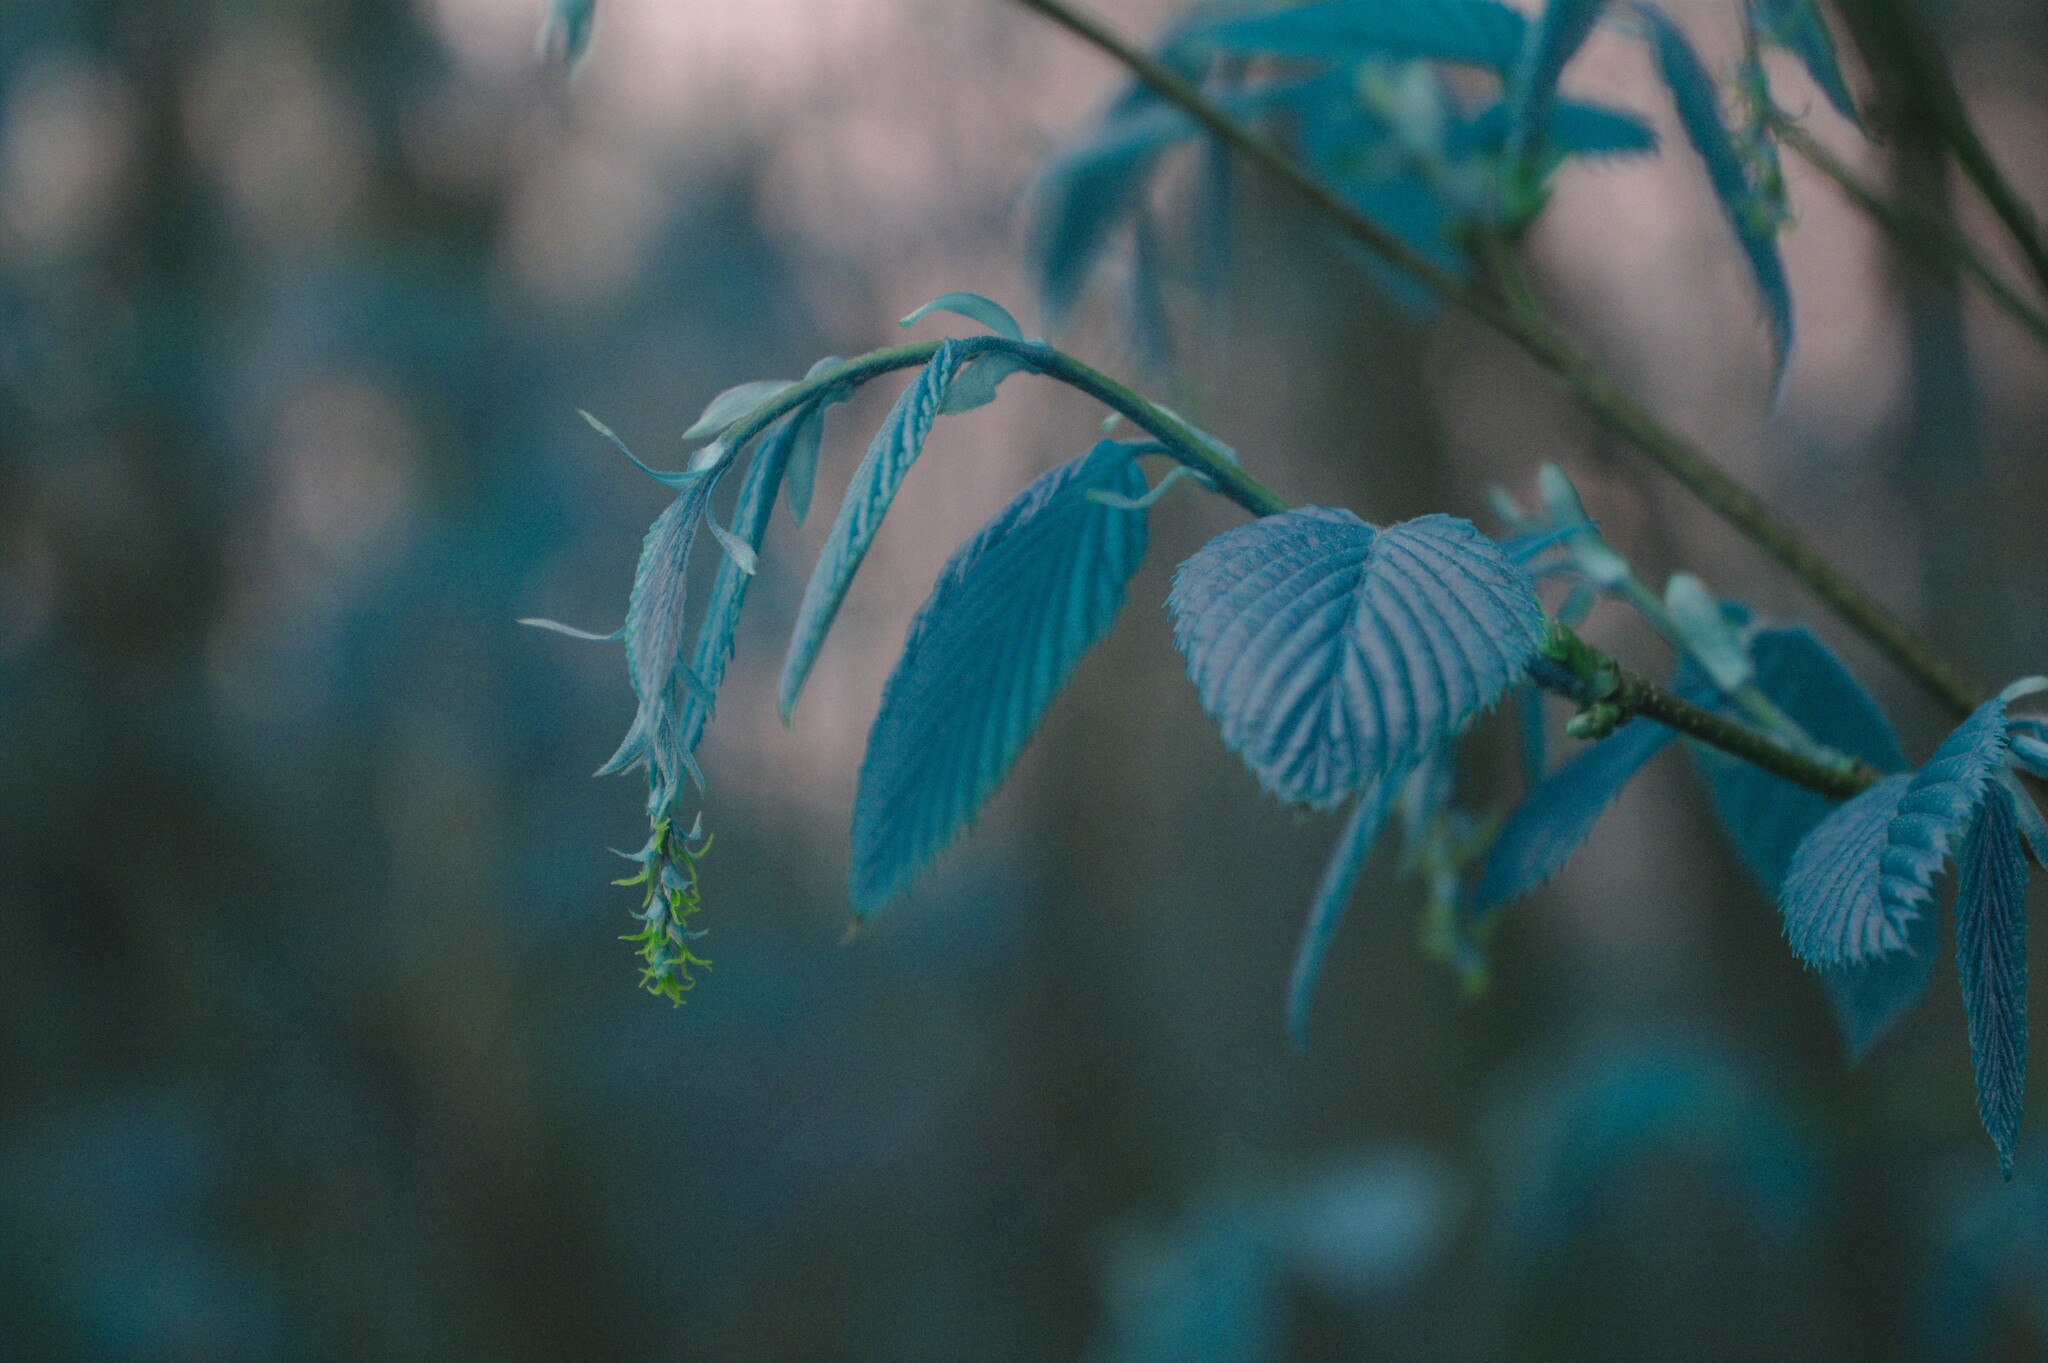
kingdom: Plantae
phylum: Tracheophyta
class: Magnoliopsida
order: Fagales
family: Betulaceae
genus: Carpinus
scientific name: Carpinus caroliniana
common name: American hornbeam
